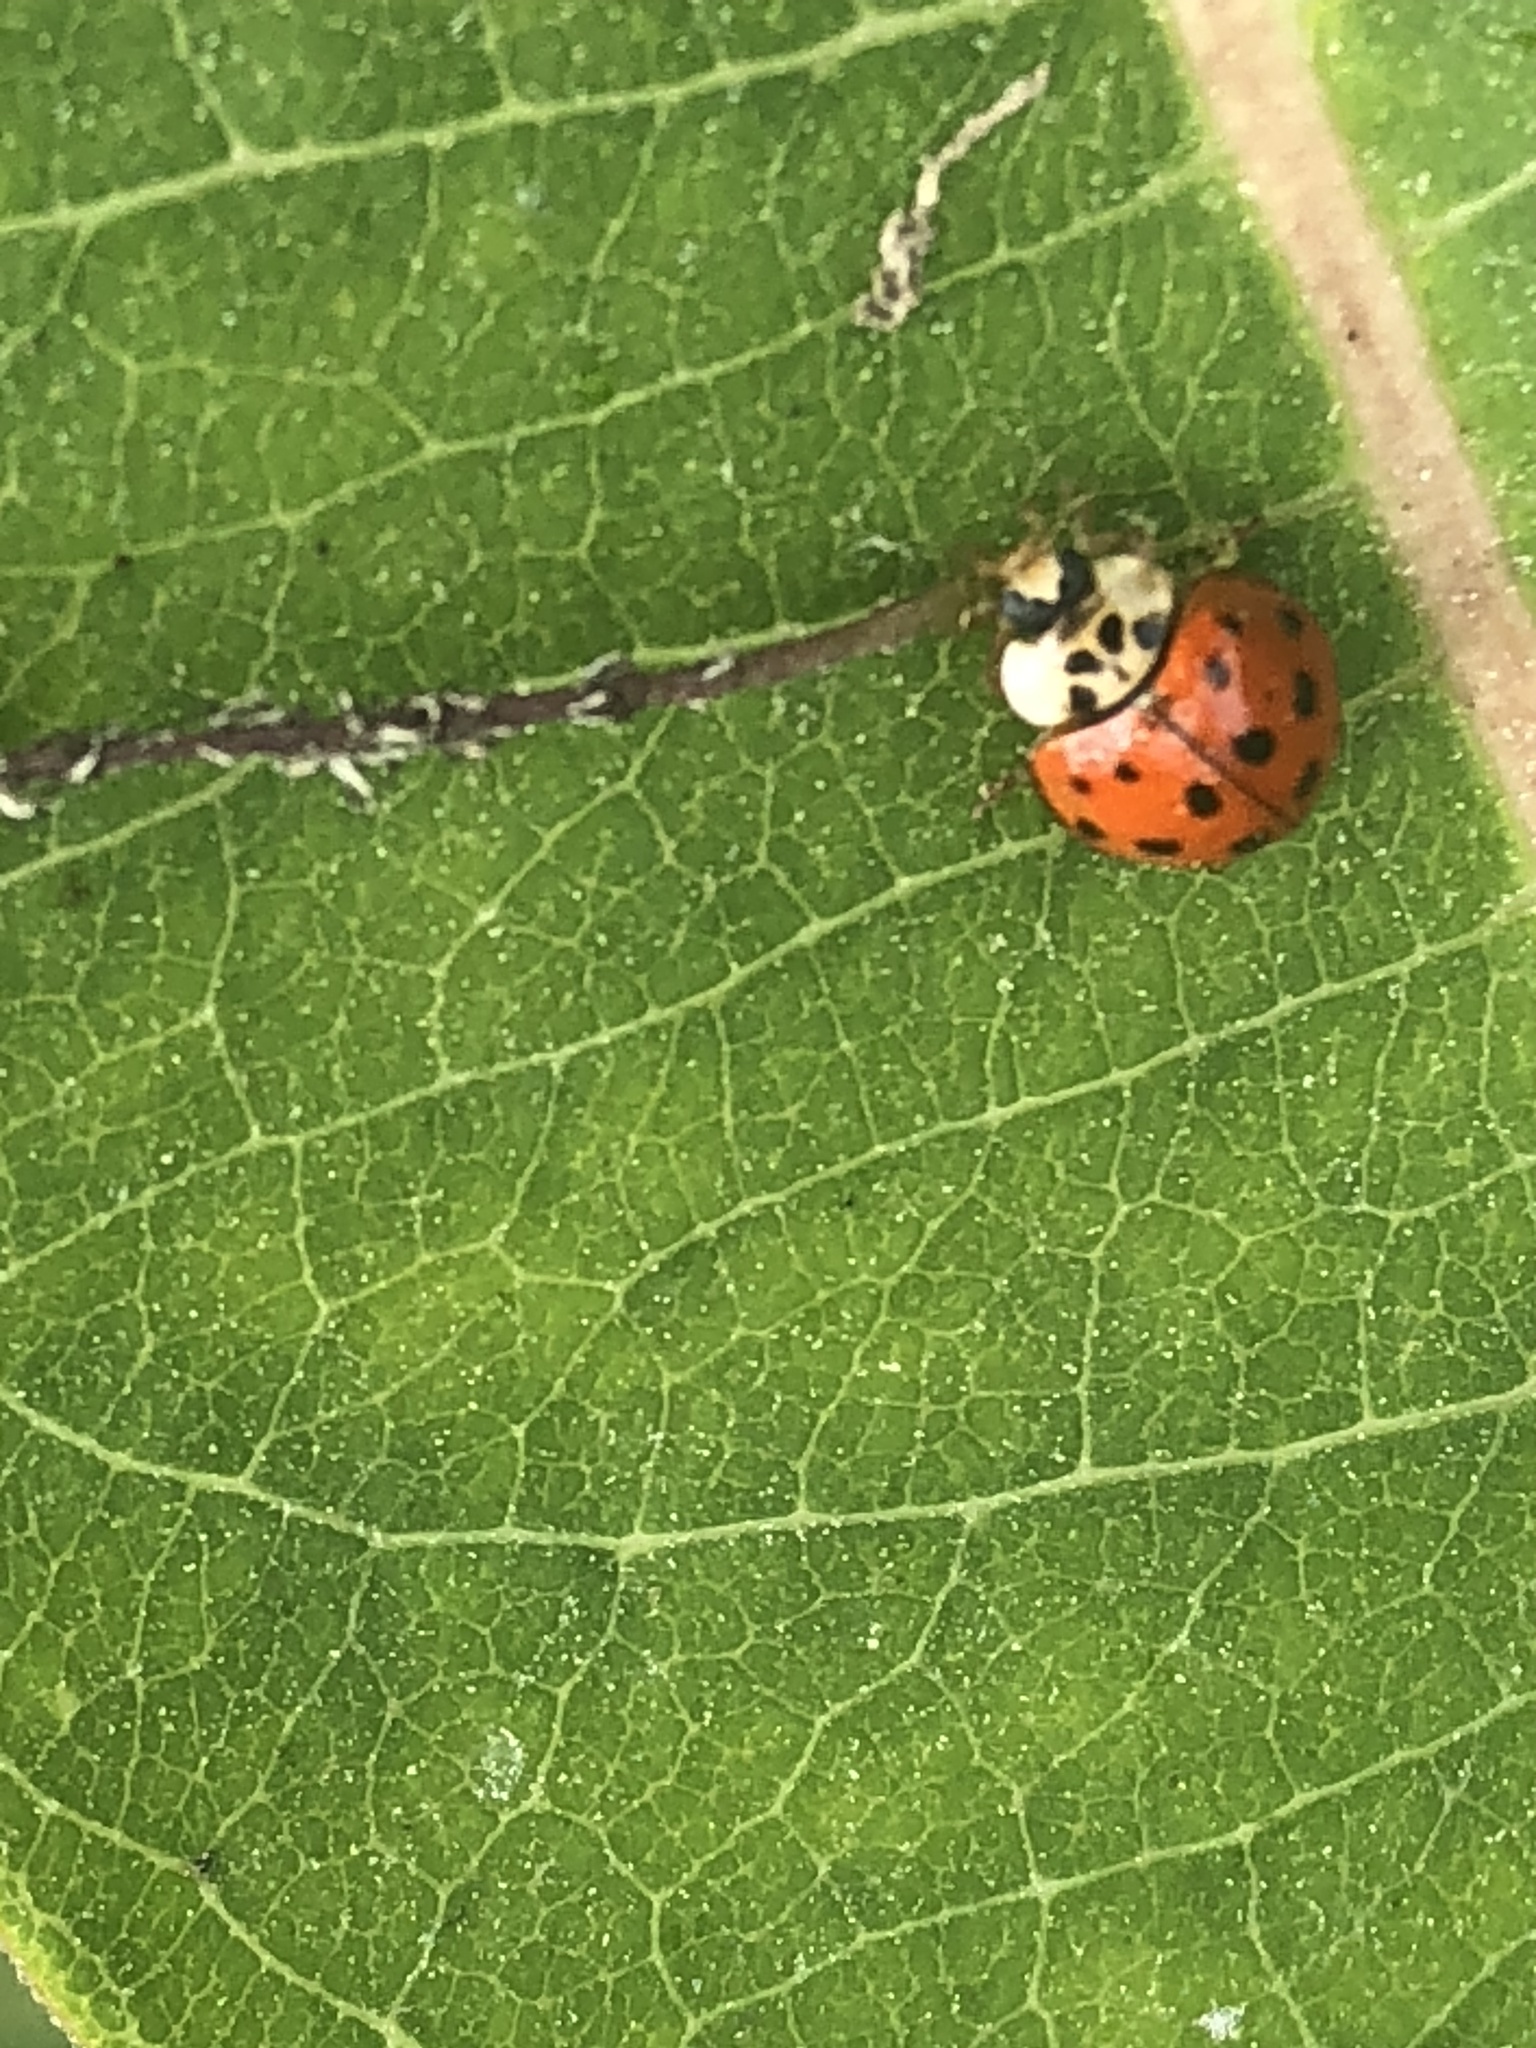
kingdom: Animalia
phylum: Arthropoda
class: Insecta
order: Coleoptera
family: Coccinellidae
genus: Harmonia
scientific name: Harmonia axyridis
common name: Harlequin ladybird
